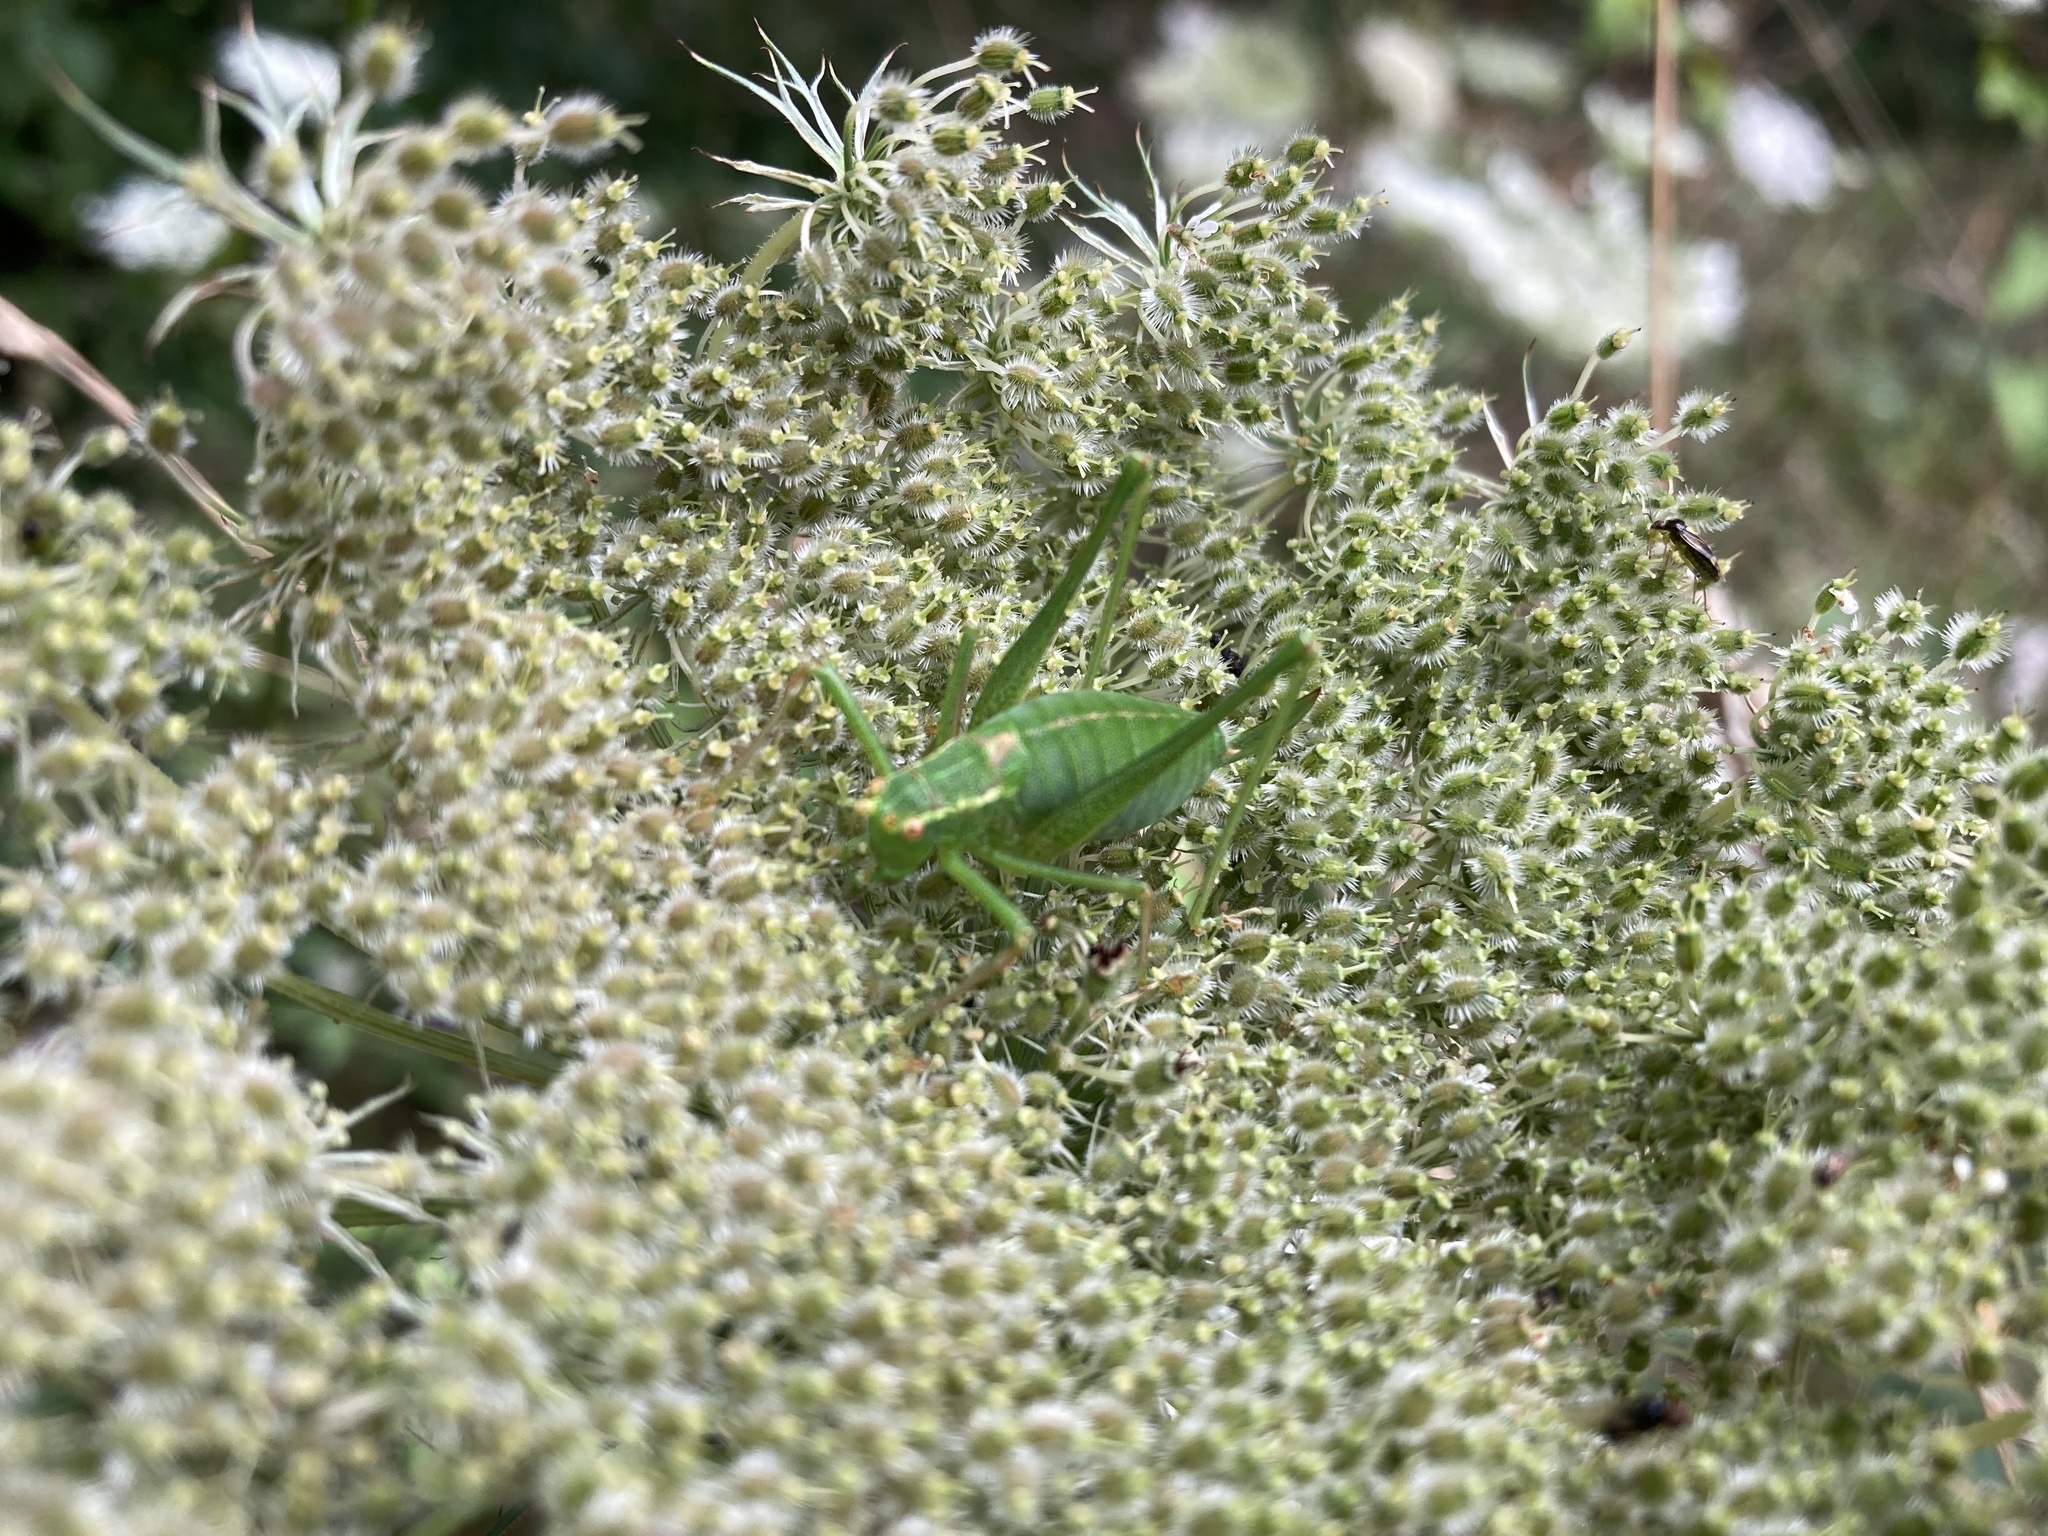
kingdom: Animalia
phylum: Arthropoda
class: Insecta
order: Orthoptera
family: Tettigoniidae
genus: Leptophyes
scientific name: Leptophyes punctatissima
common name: Speckled bush-cricket
